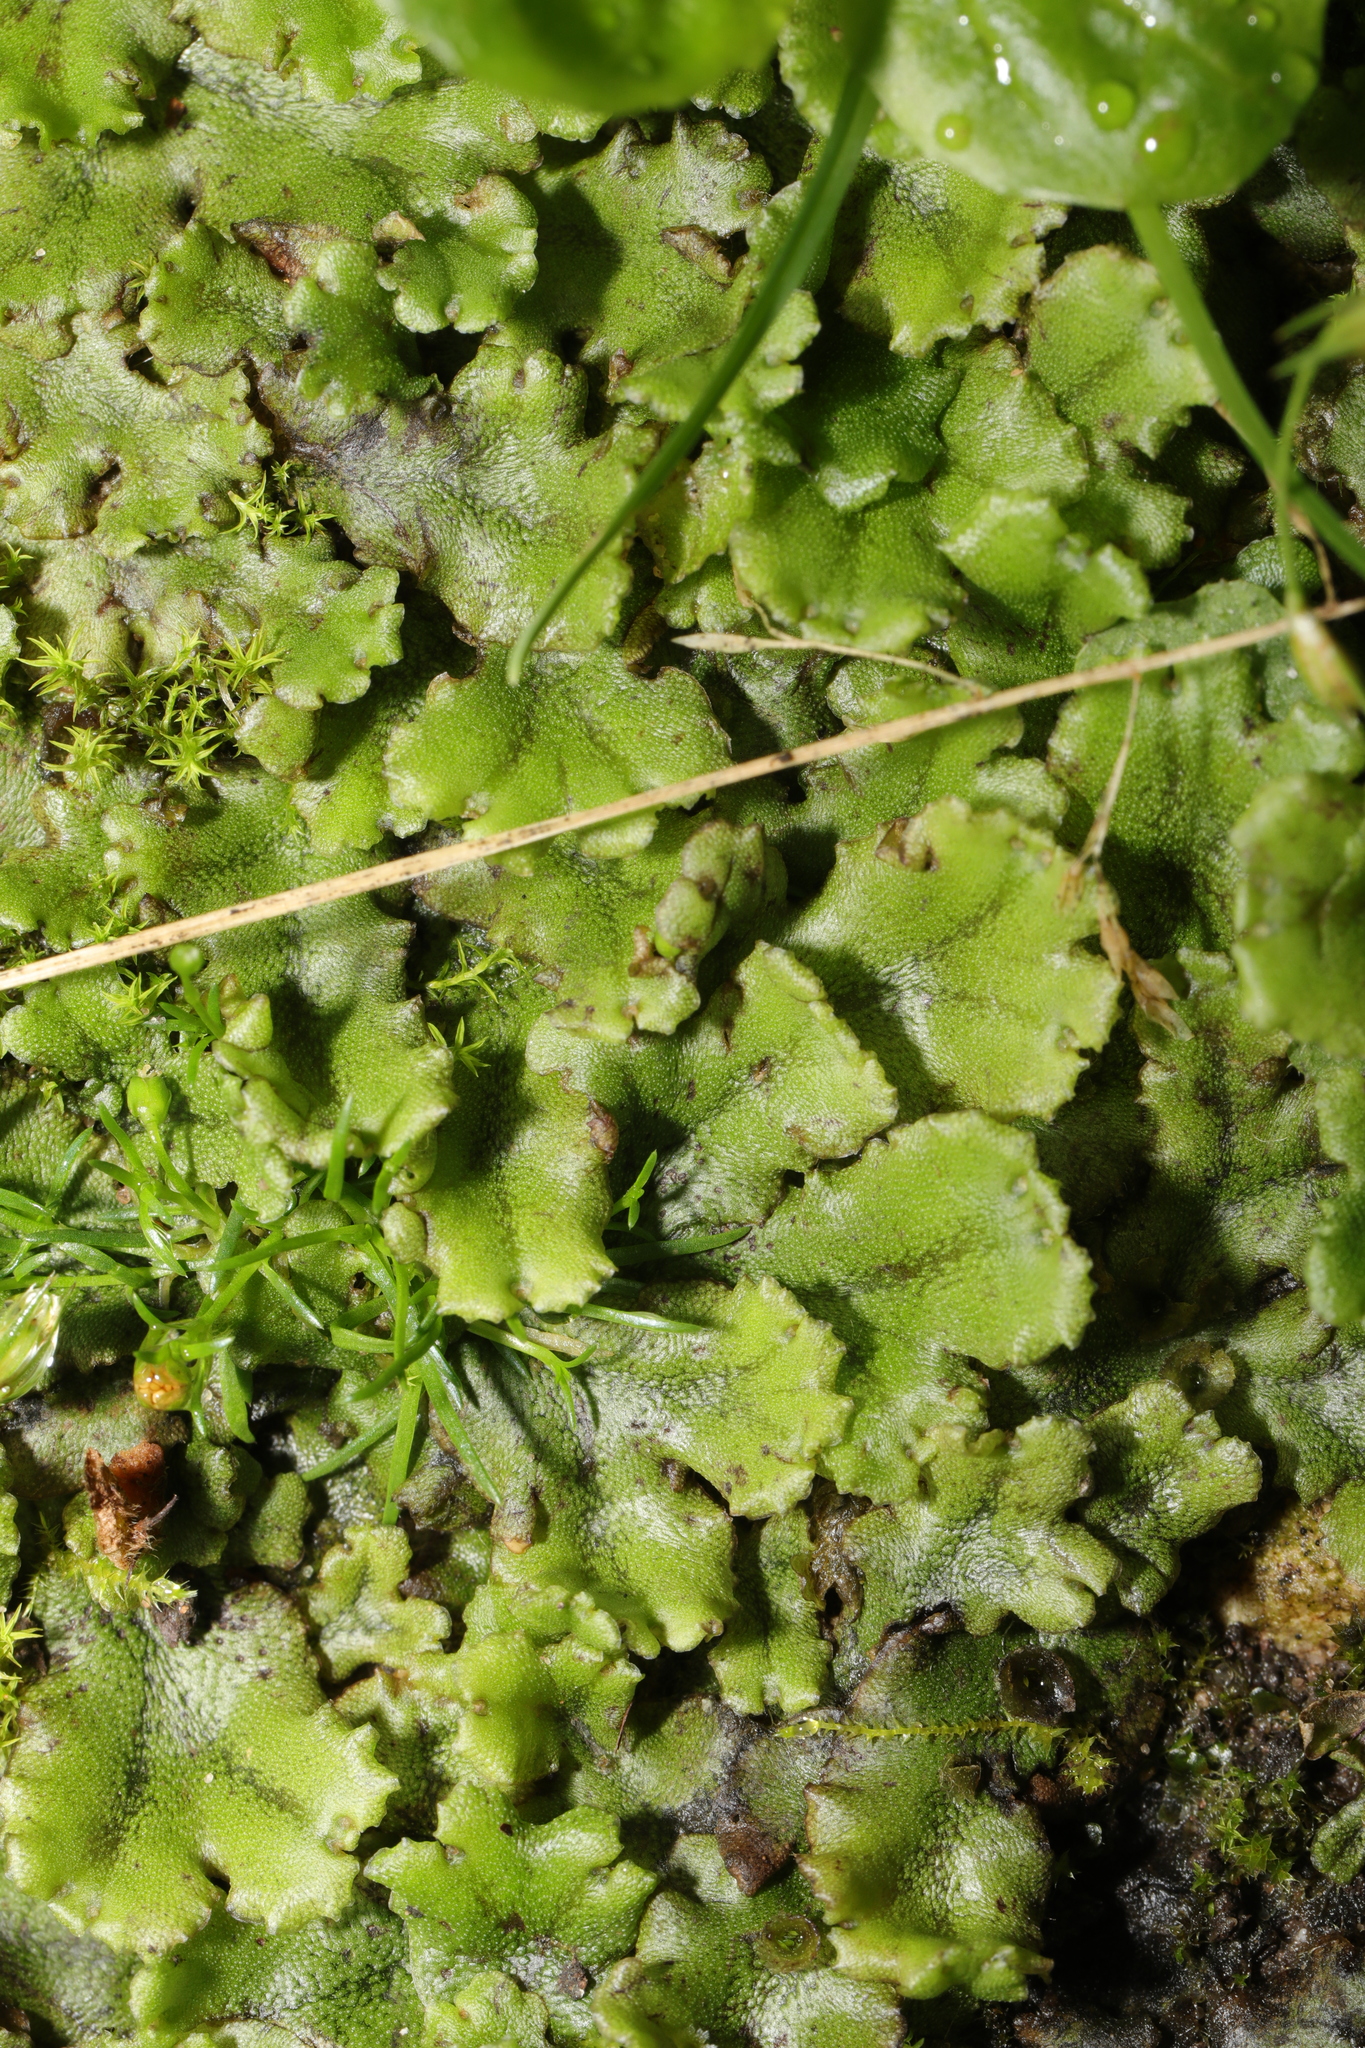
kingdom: Plantae
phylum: Marchantiophyta
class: Marchantiopsida
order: Marchantiales
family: Marchantiaceae
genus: Marchantia
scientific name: Marchantia polymorpha
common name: Common liverwort
